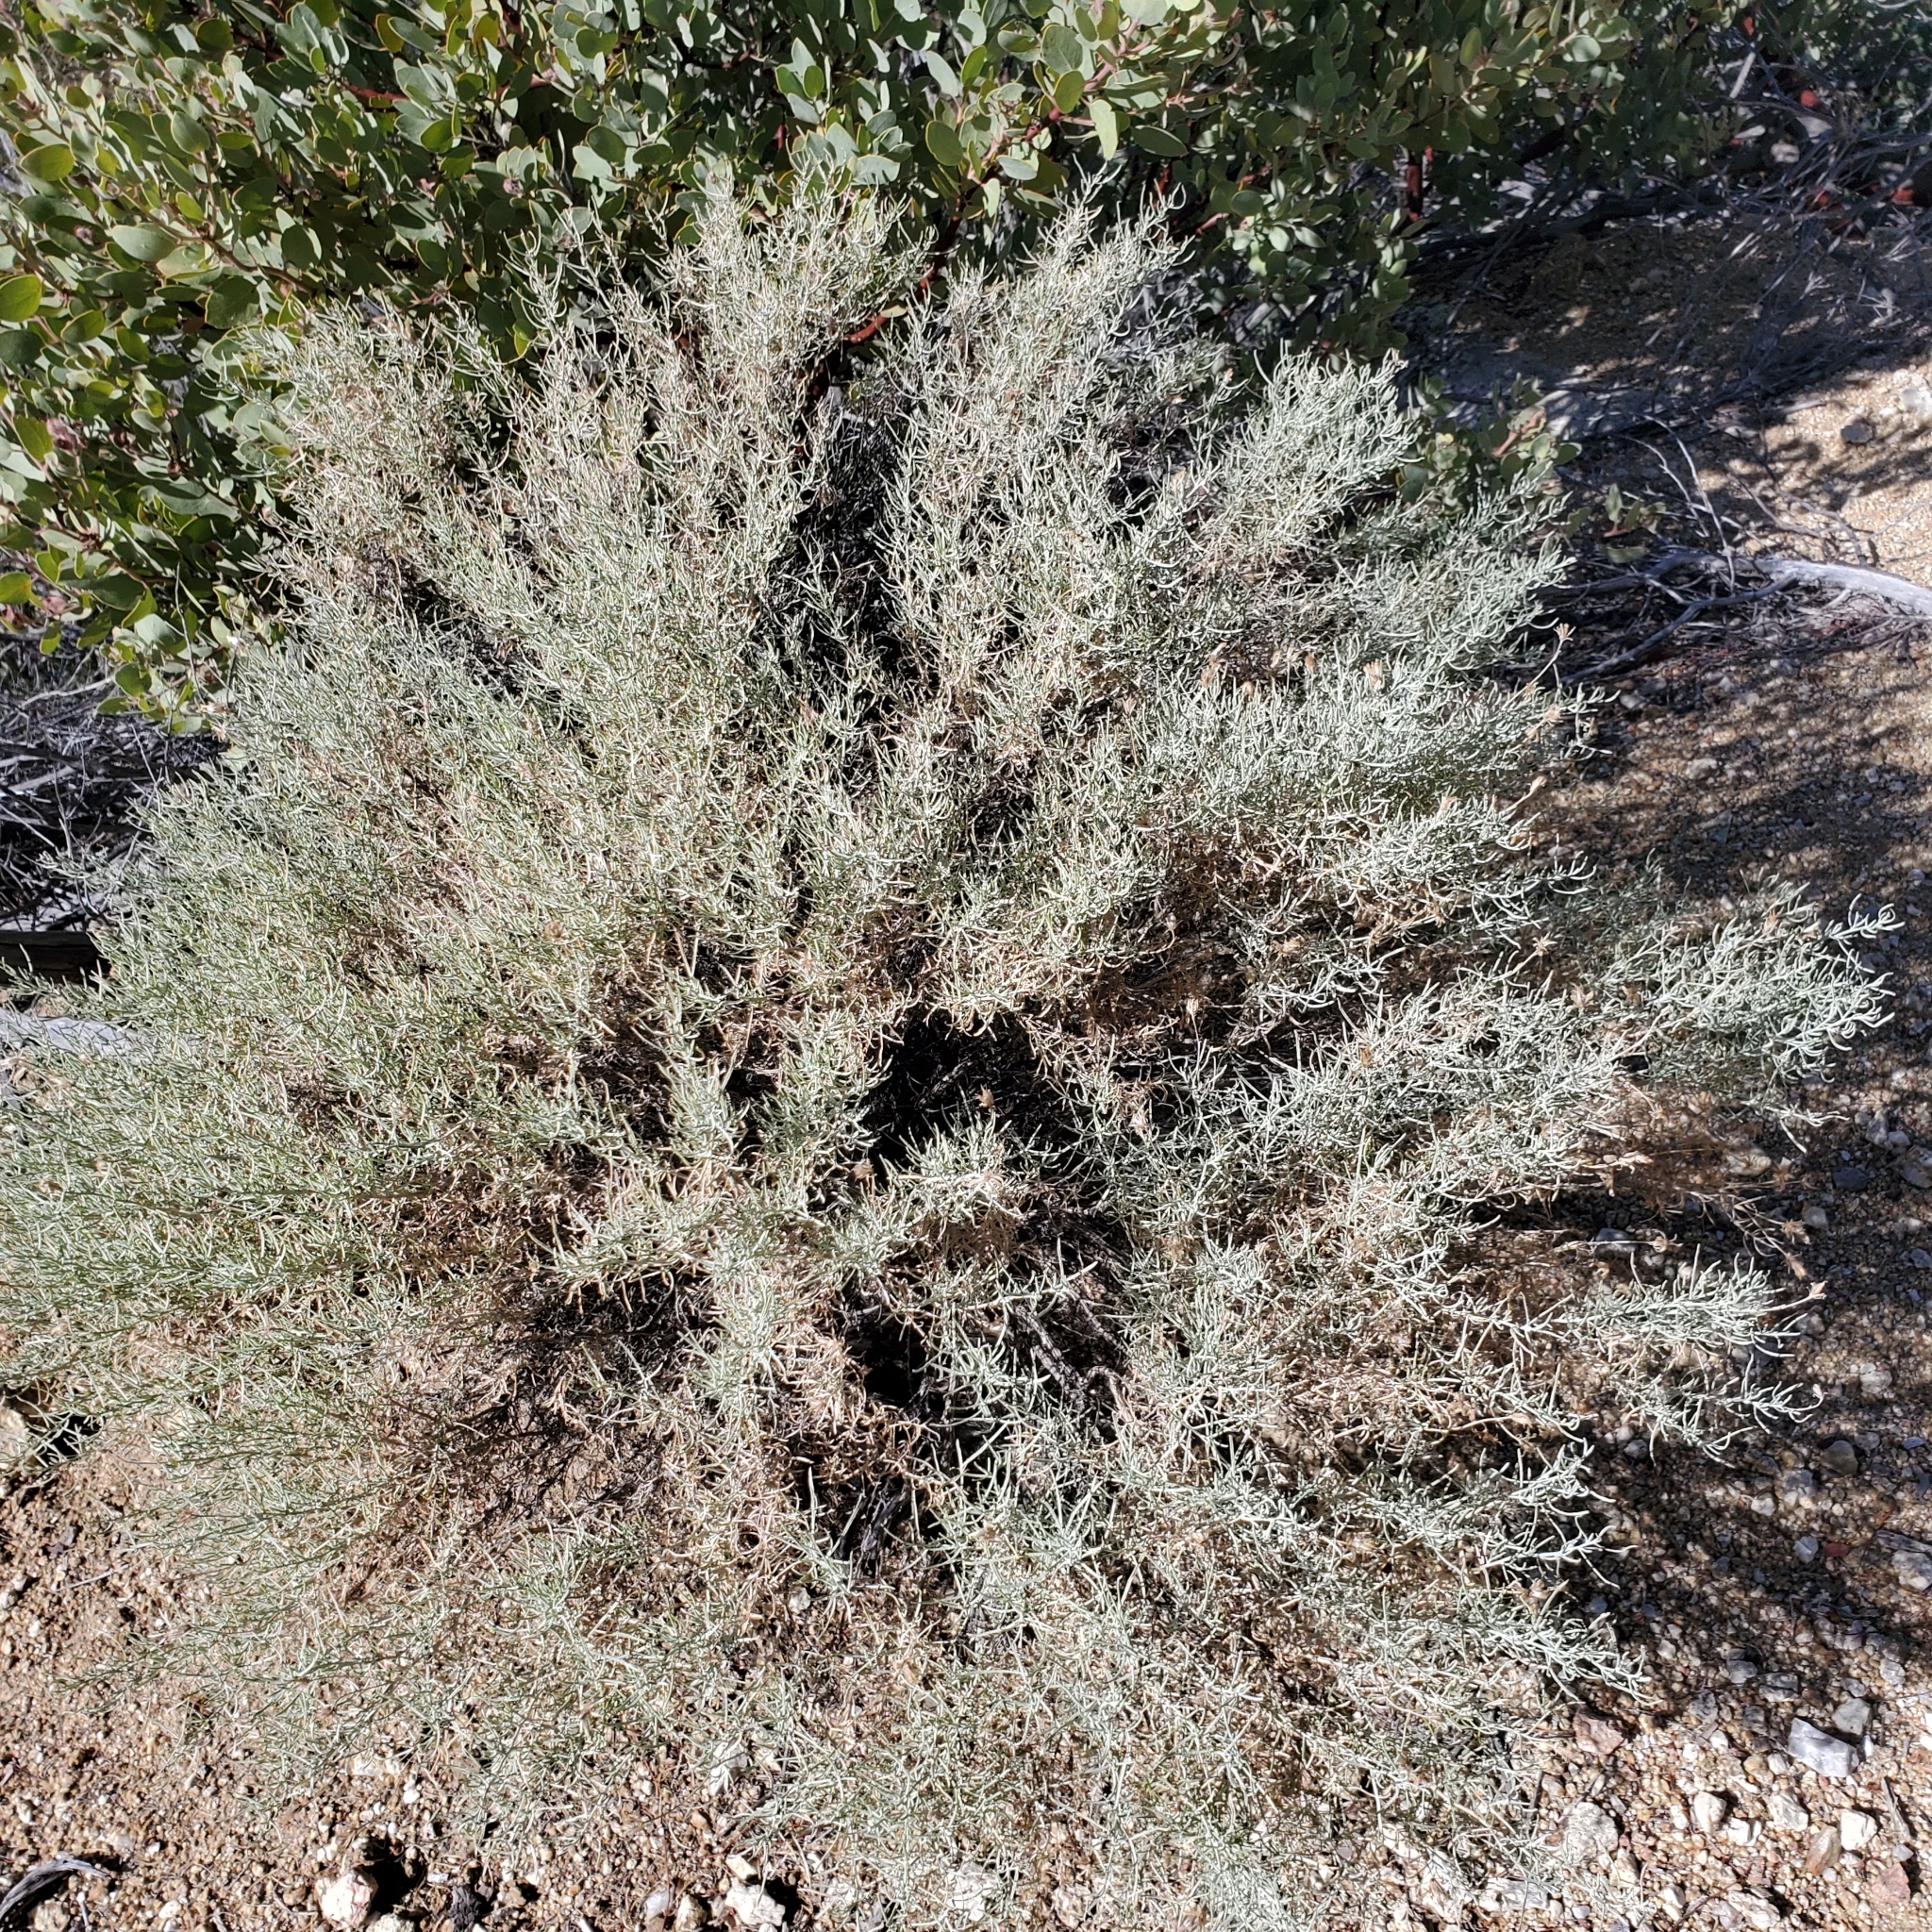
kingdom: Plantae
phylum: Tracheophyta
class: Magnoliopsida
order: Asterales
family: Asteraceae
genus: Ericameria
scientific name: Ericameria brachylepis
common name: Boundary goldenbush
